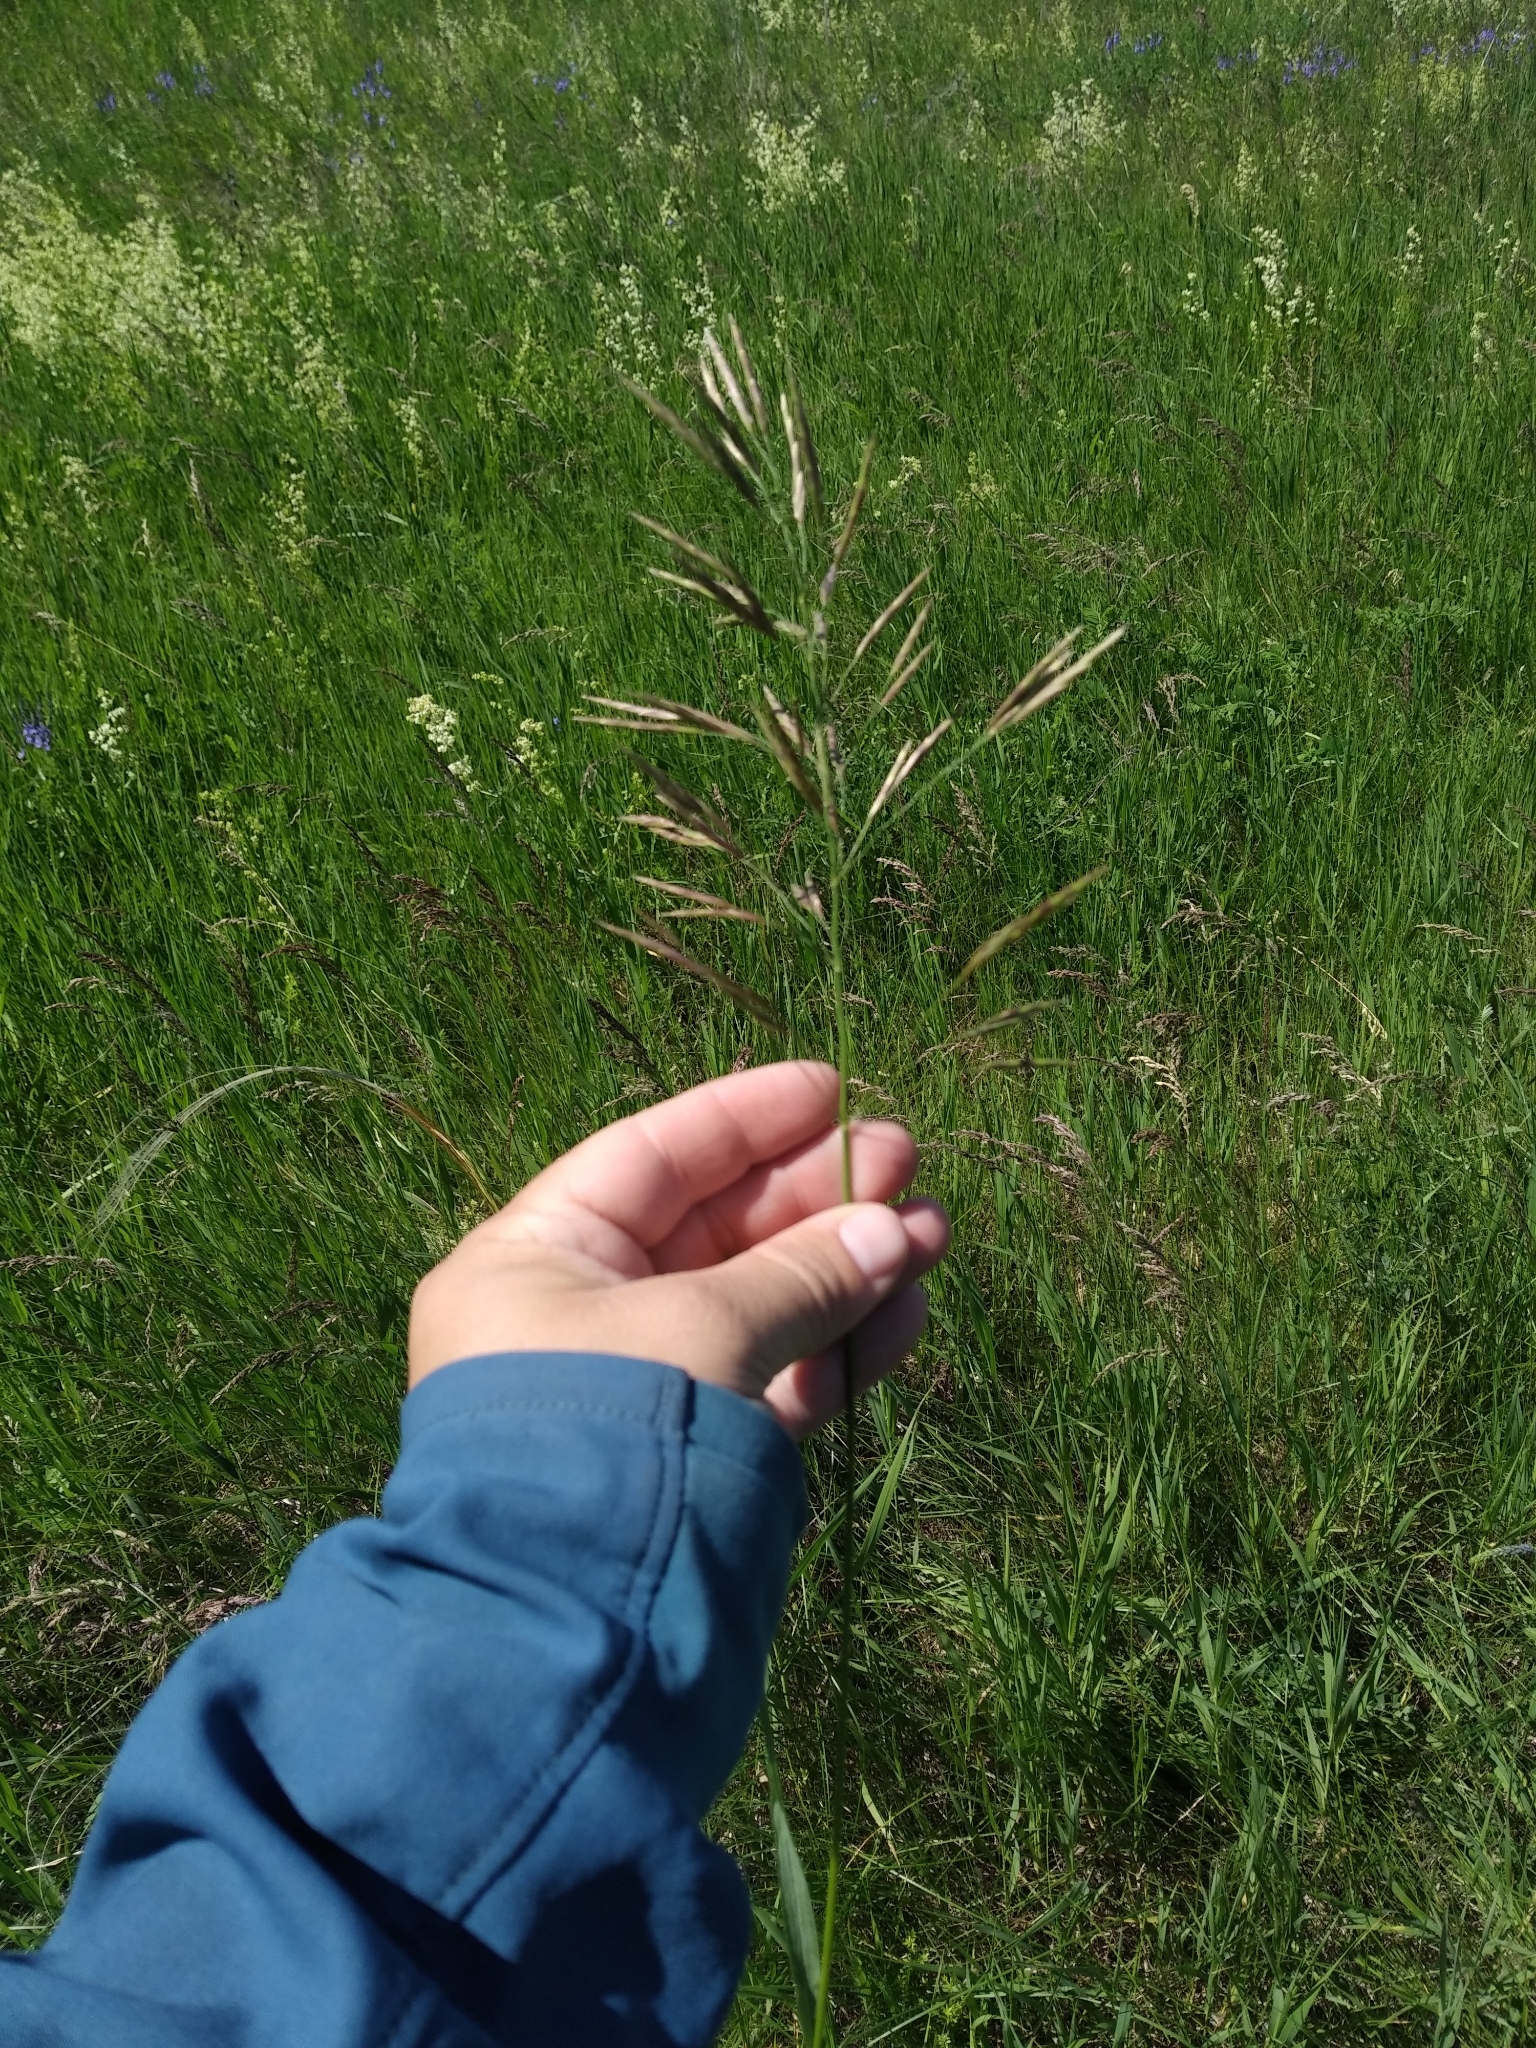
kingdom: Plantae
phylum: Tracheophyta
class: Liliopsida
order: Poales
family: Poaceae
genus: Bromus
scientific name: Bromus inermis
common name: Smooth brome
